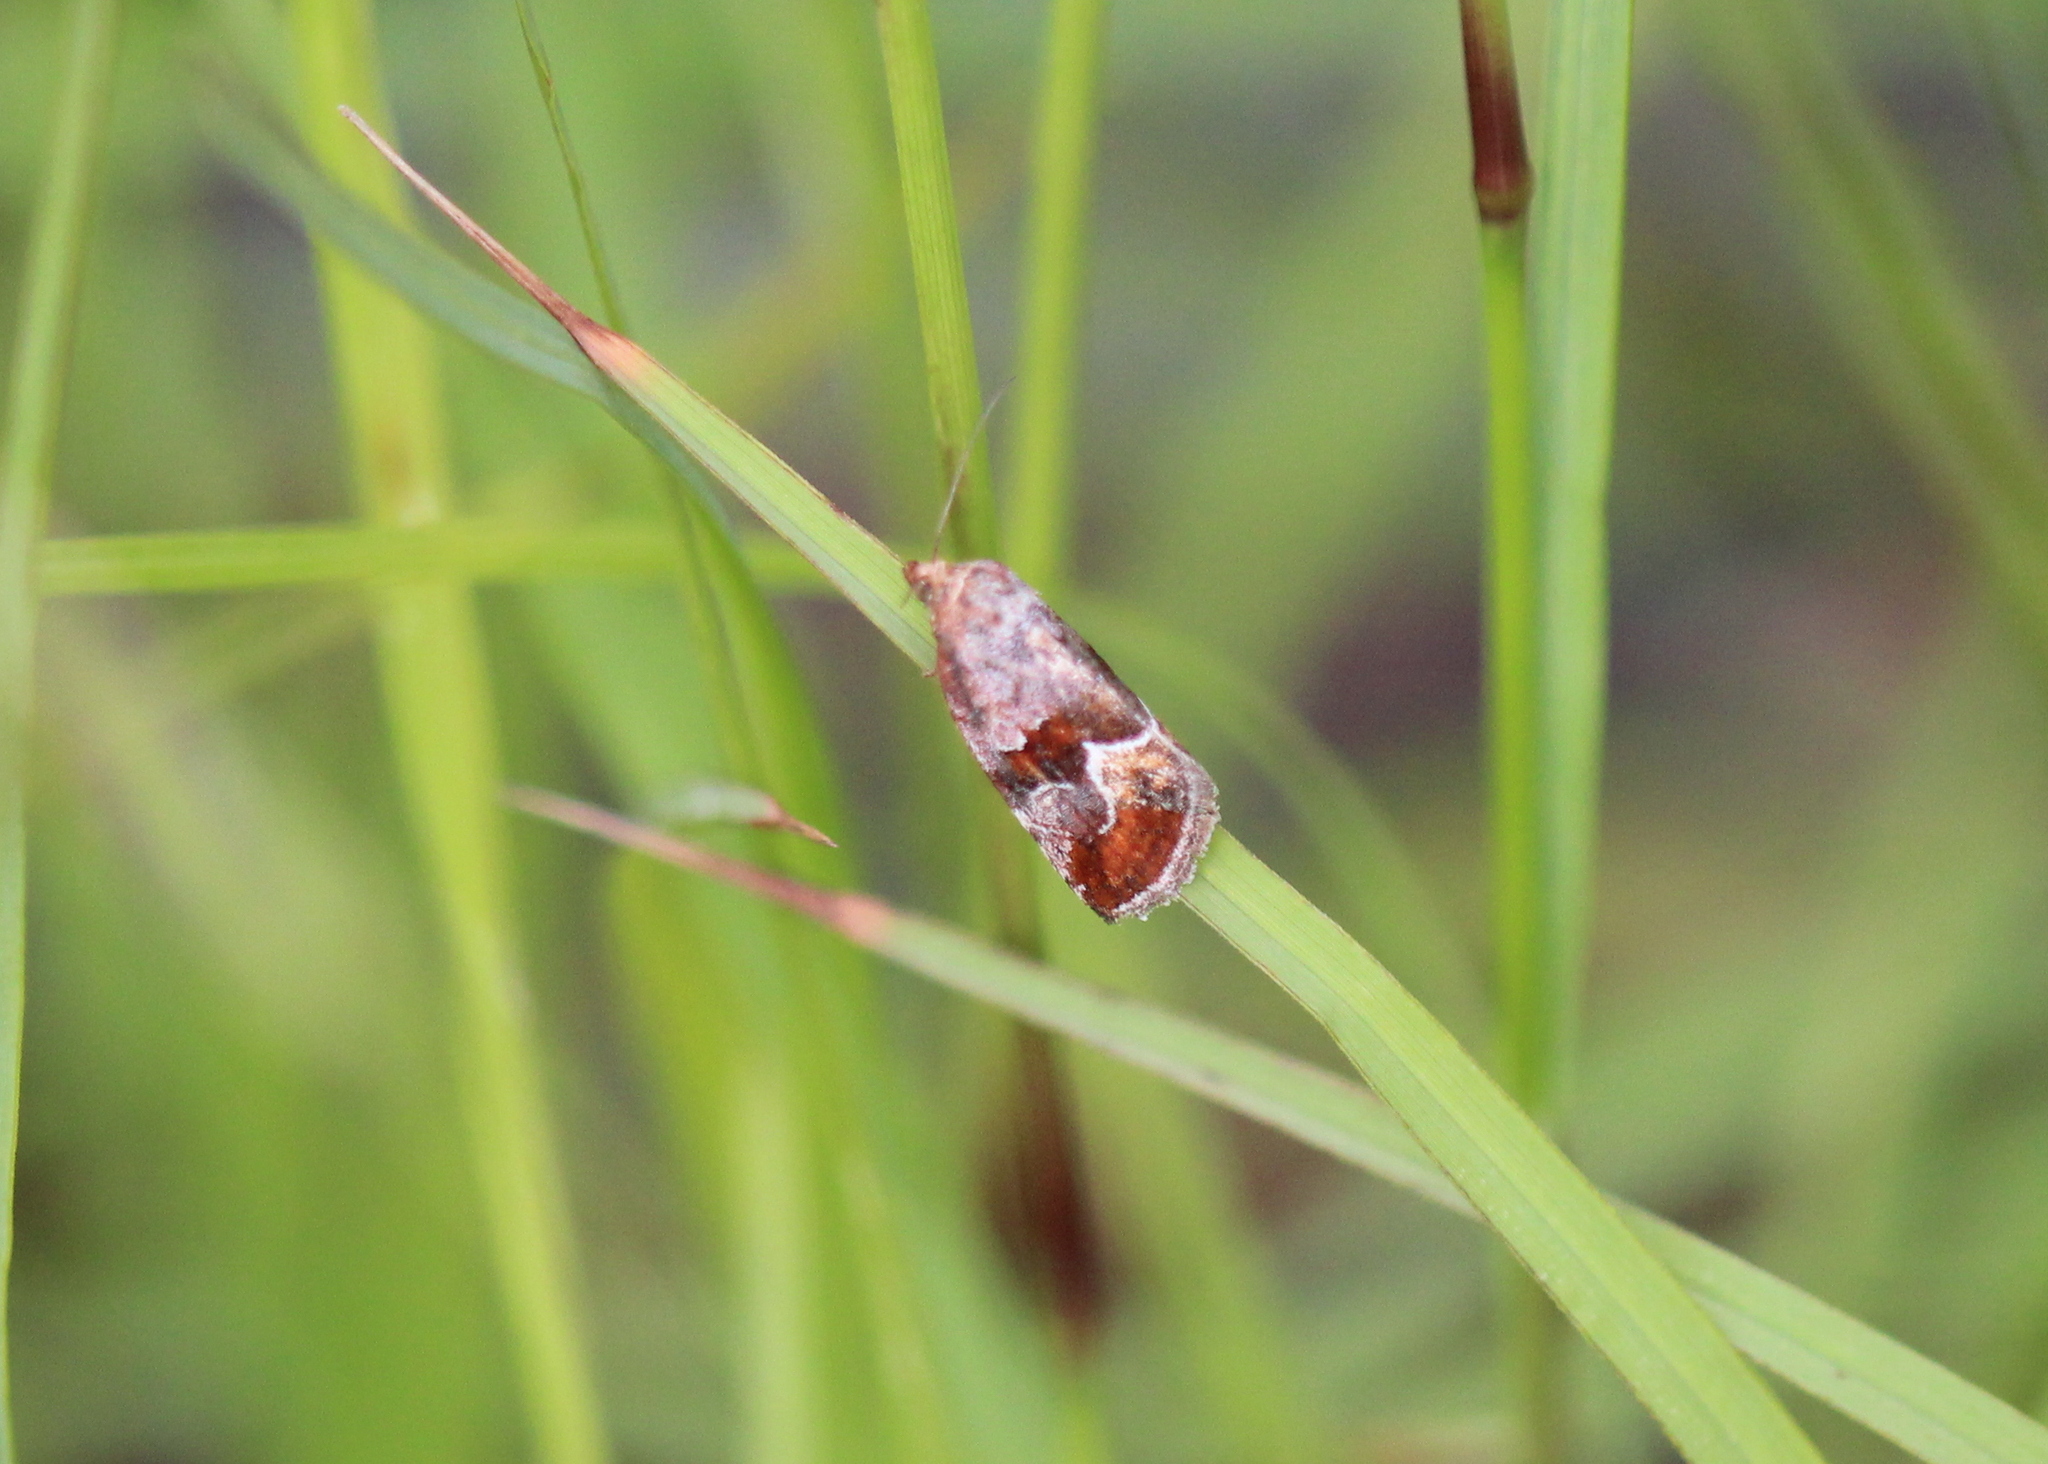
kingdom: Animalia
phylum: Arthropoda
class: Insecta
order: Lepidoptera
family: Noctuidae
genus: Deltote
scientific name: Deltote bellicula
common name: Bog glyph
